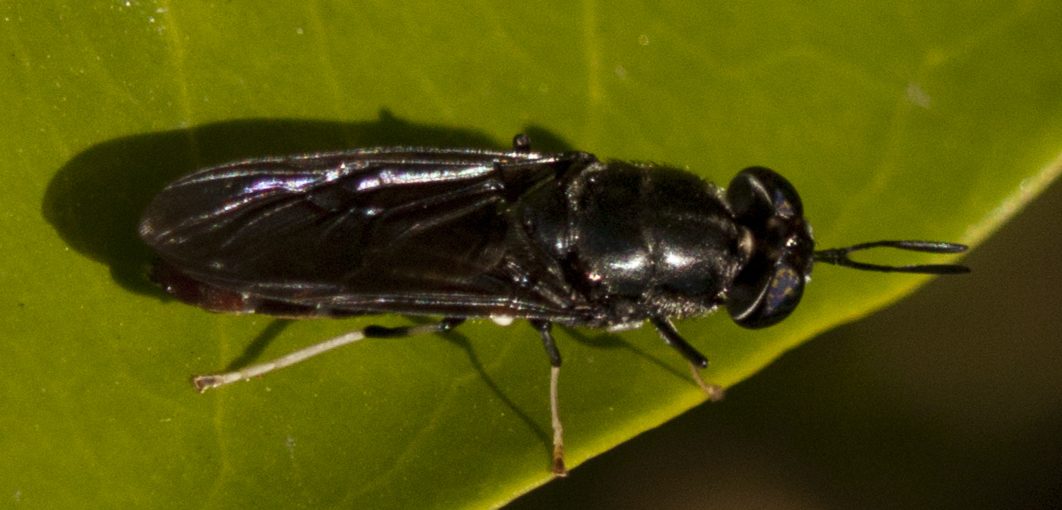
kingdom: Animalia
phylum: Arthropoda
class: Insecta
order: Diptera
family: Stratiomyidae
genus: Hermetia
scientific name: Hermetia illucens
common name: Black soldier fly
